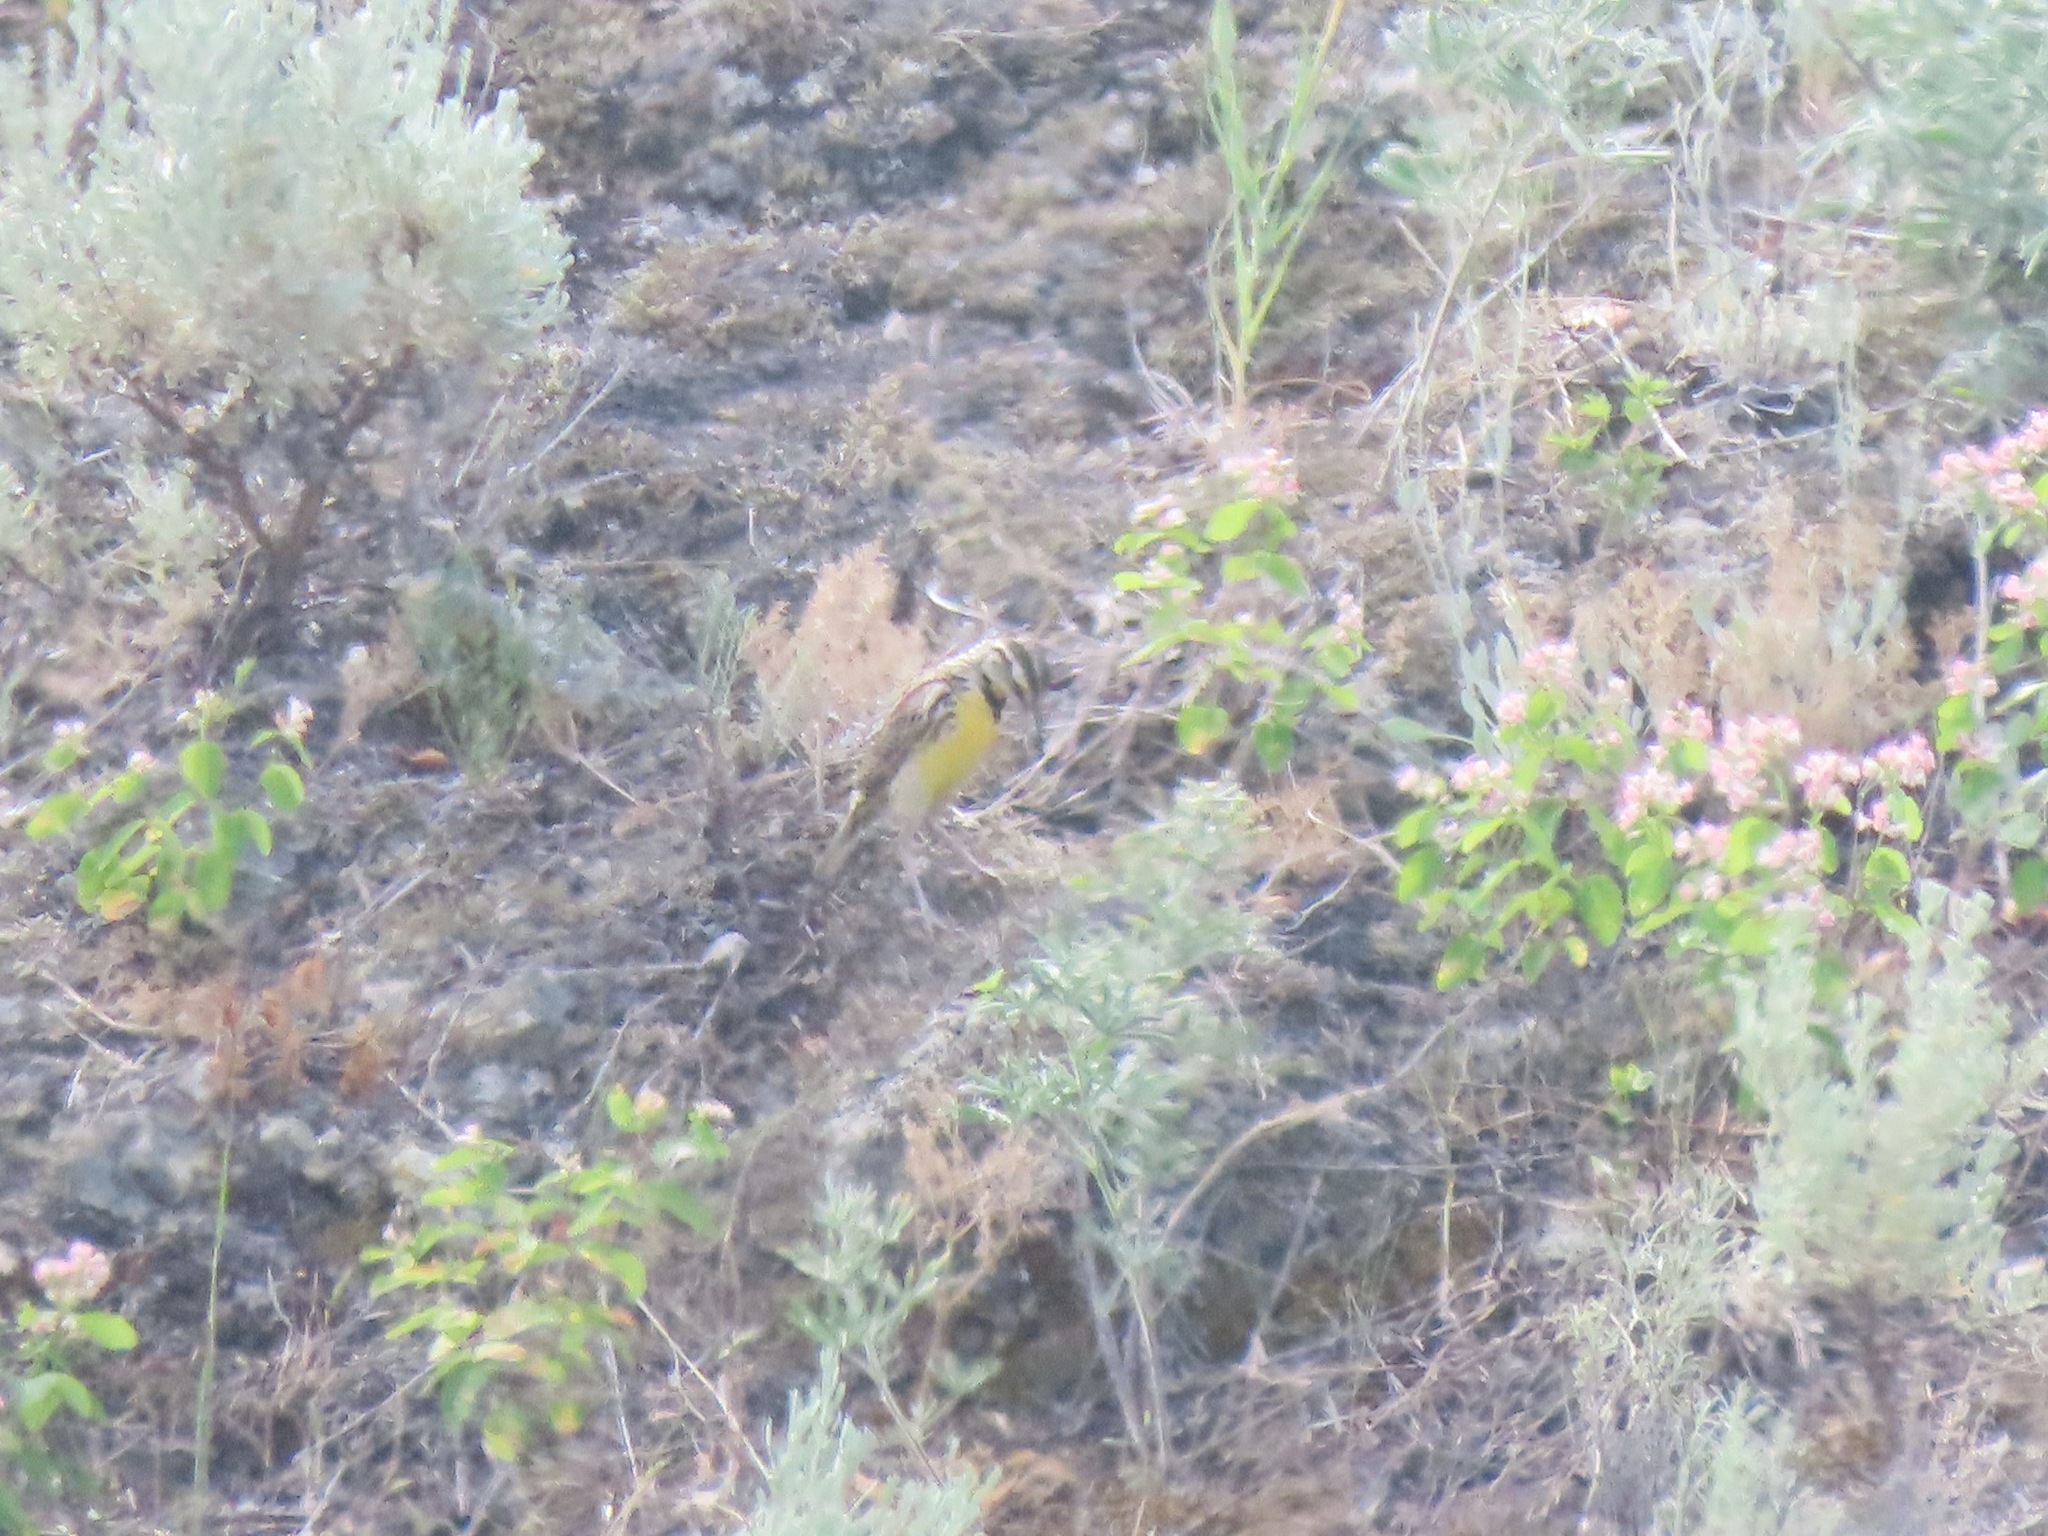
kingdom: Animalia
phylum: Chordata
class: Aves
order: Passeriformes
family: Icteridae
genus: Sturnella
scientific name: Sturnella neglecta
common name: Western meadowlark
